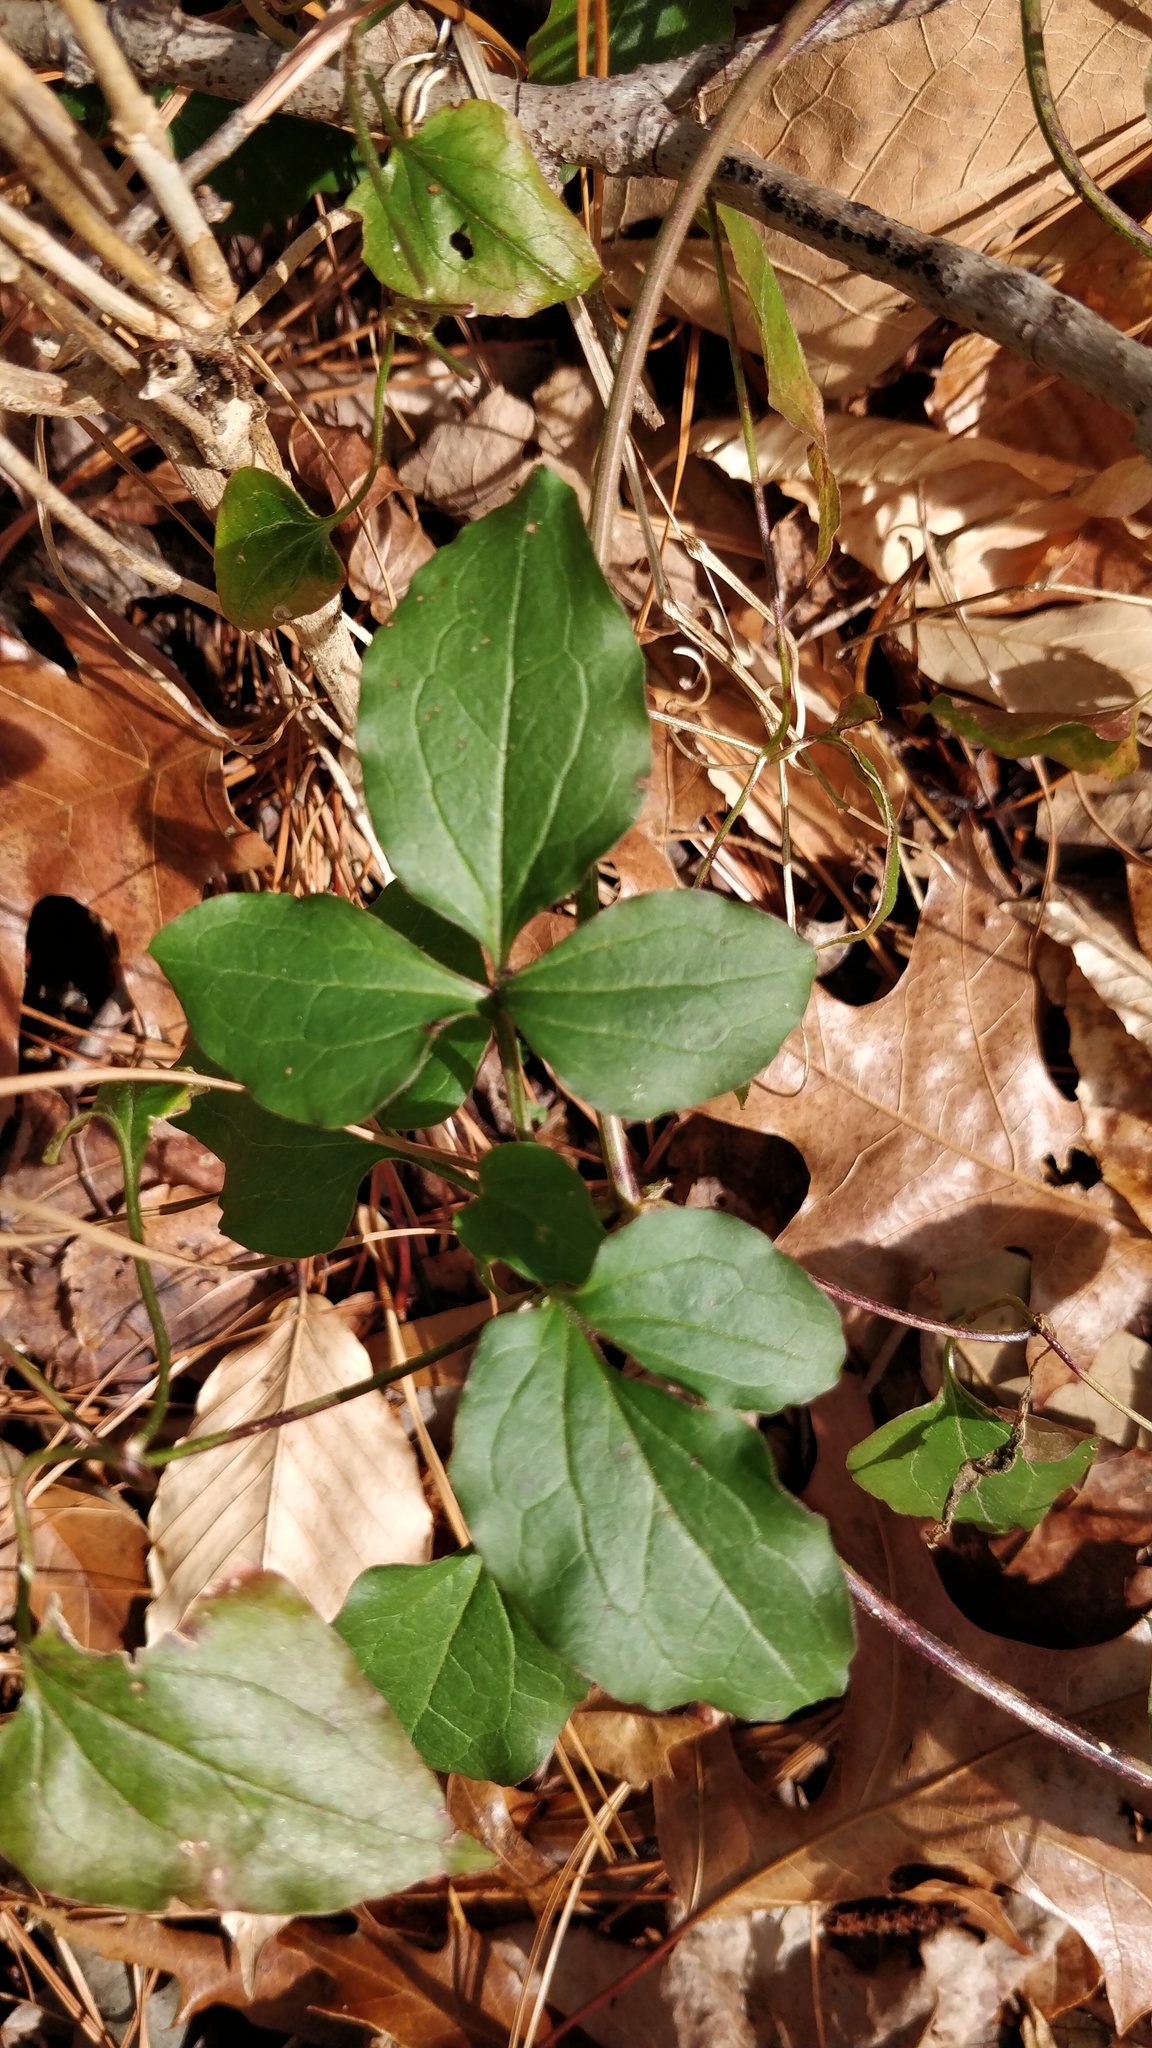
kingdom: Plantae
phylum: Tracheophyta
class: Magnoliopsida
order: Dipsacales
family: Caprifoliaceae
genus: Lonicera
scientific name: Lonicera japonica
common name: Japanese honeysuckle
